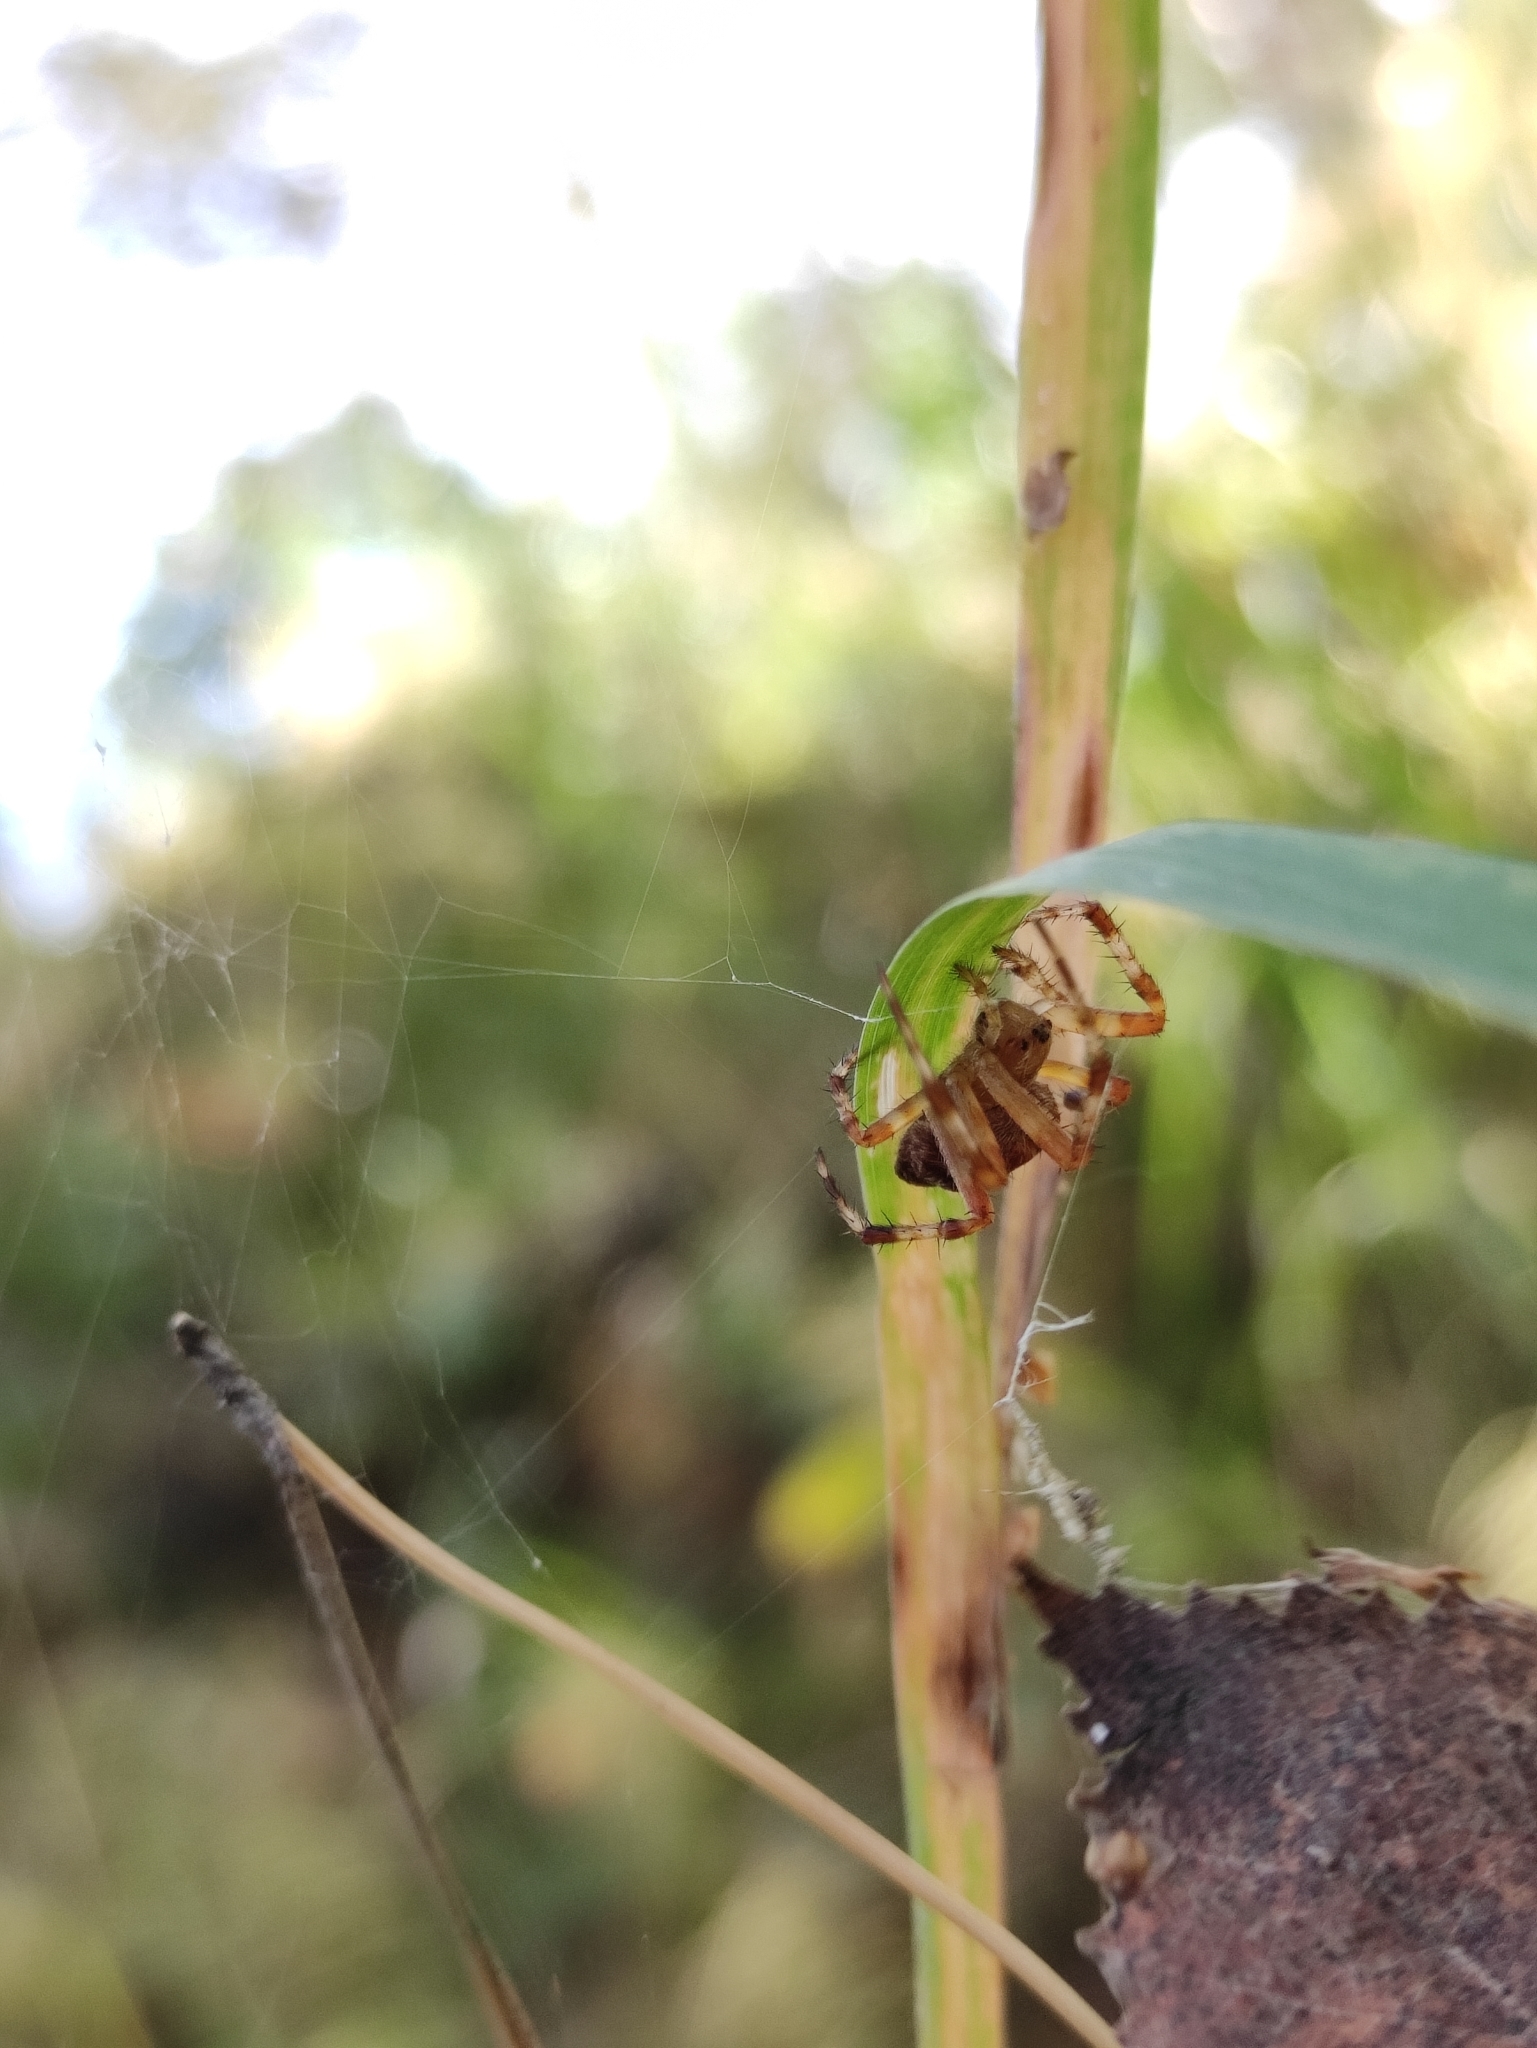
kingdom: Animalia
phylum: Arthropoda
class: Arachnida
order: Araneae
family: Araneidae
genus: Araneus
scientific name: Araneus diadematus
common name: Cross orbweaver
